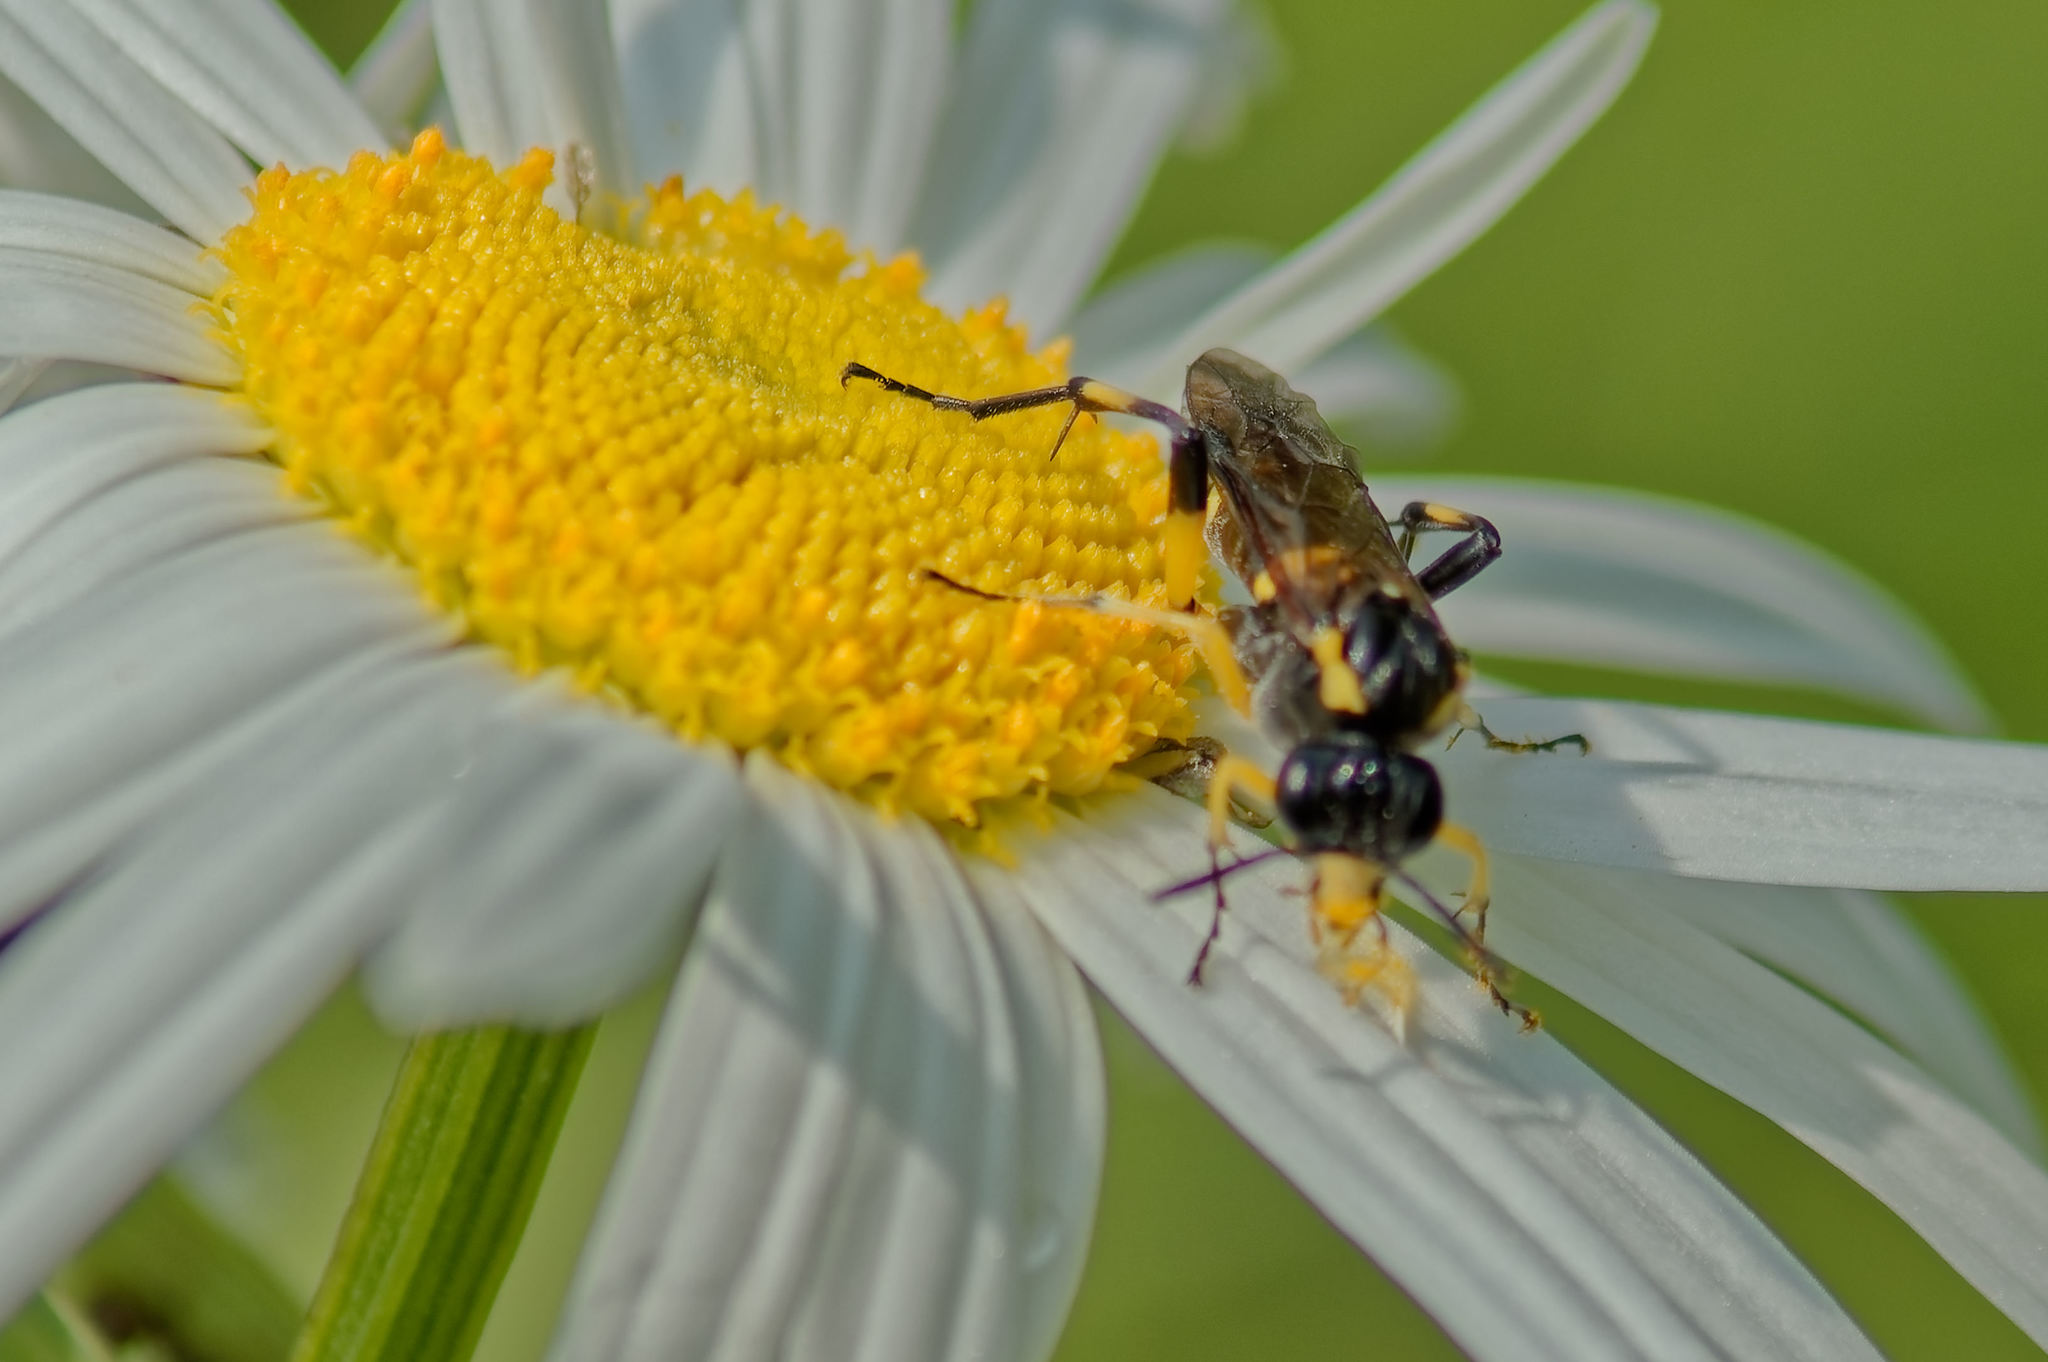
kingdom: Animalia
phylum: Arthropoda
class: Insecta
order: Hymenoptera
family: Tenthredinidae
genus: Macrophya
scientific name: Macrophya montana
